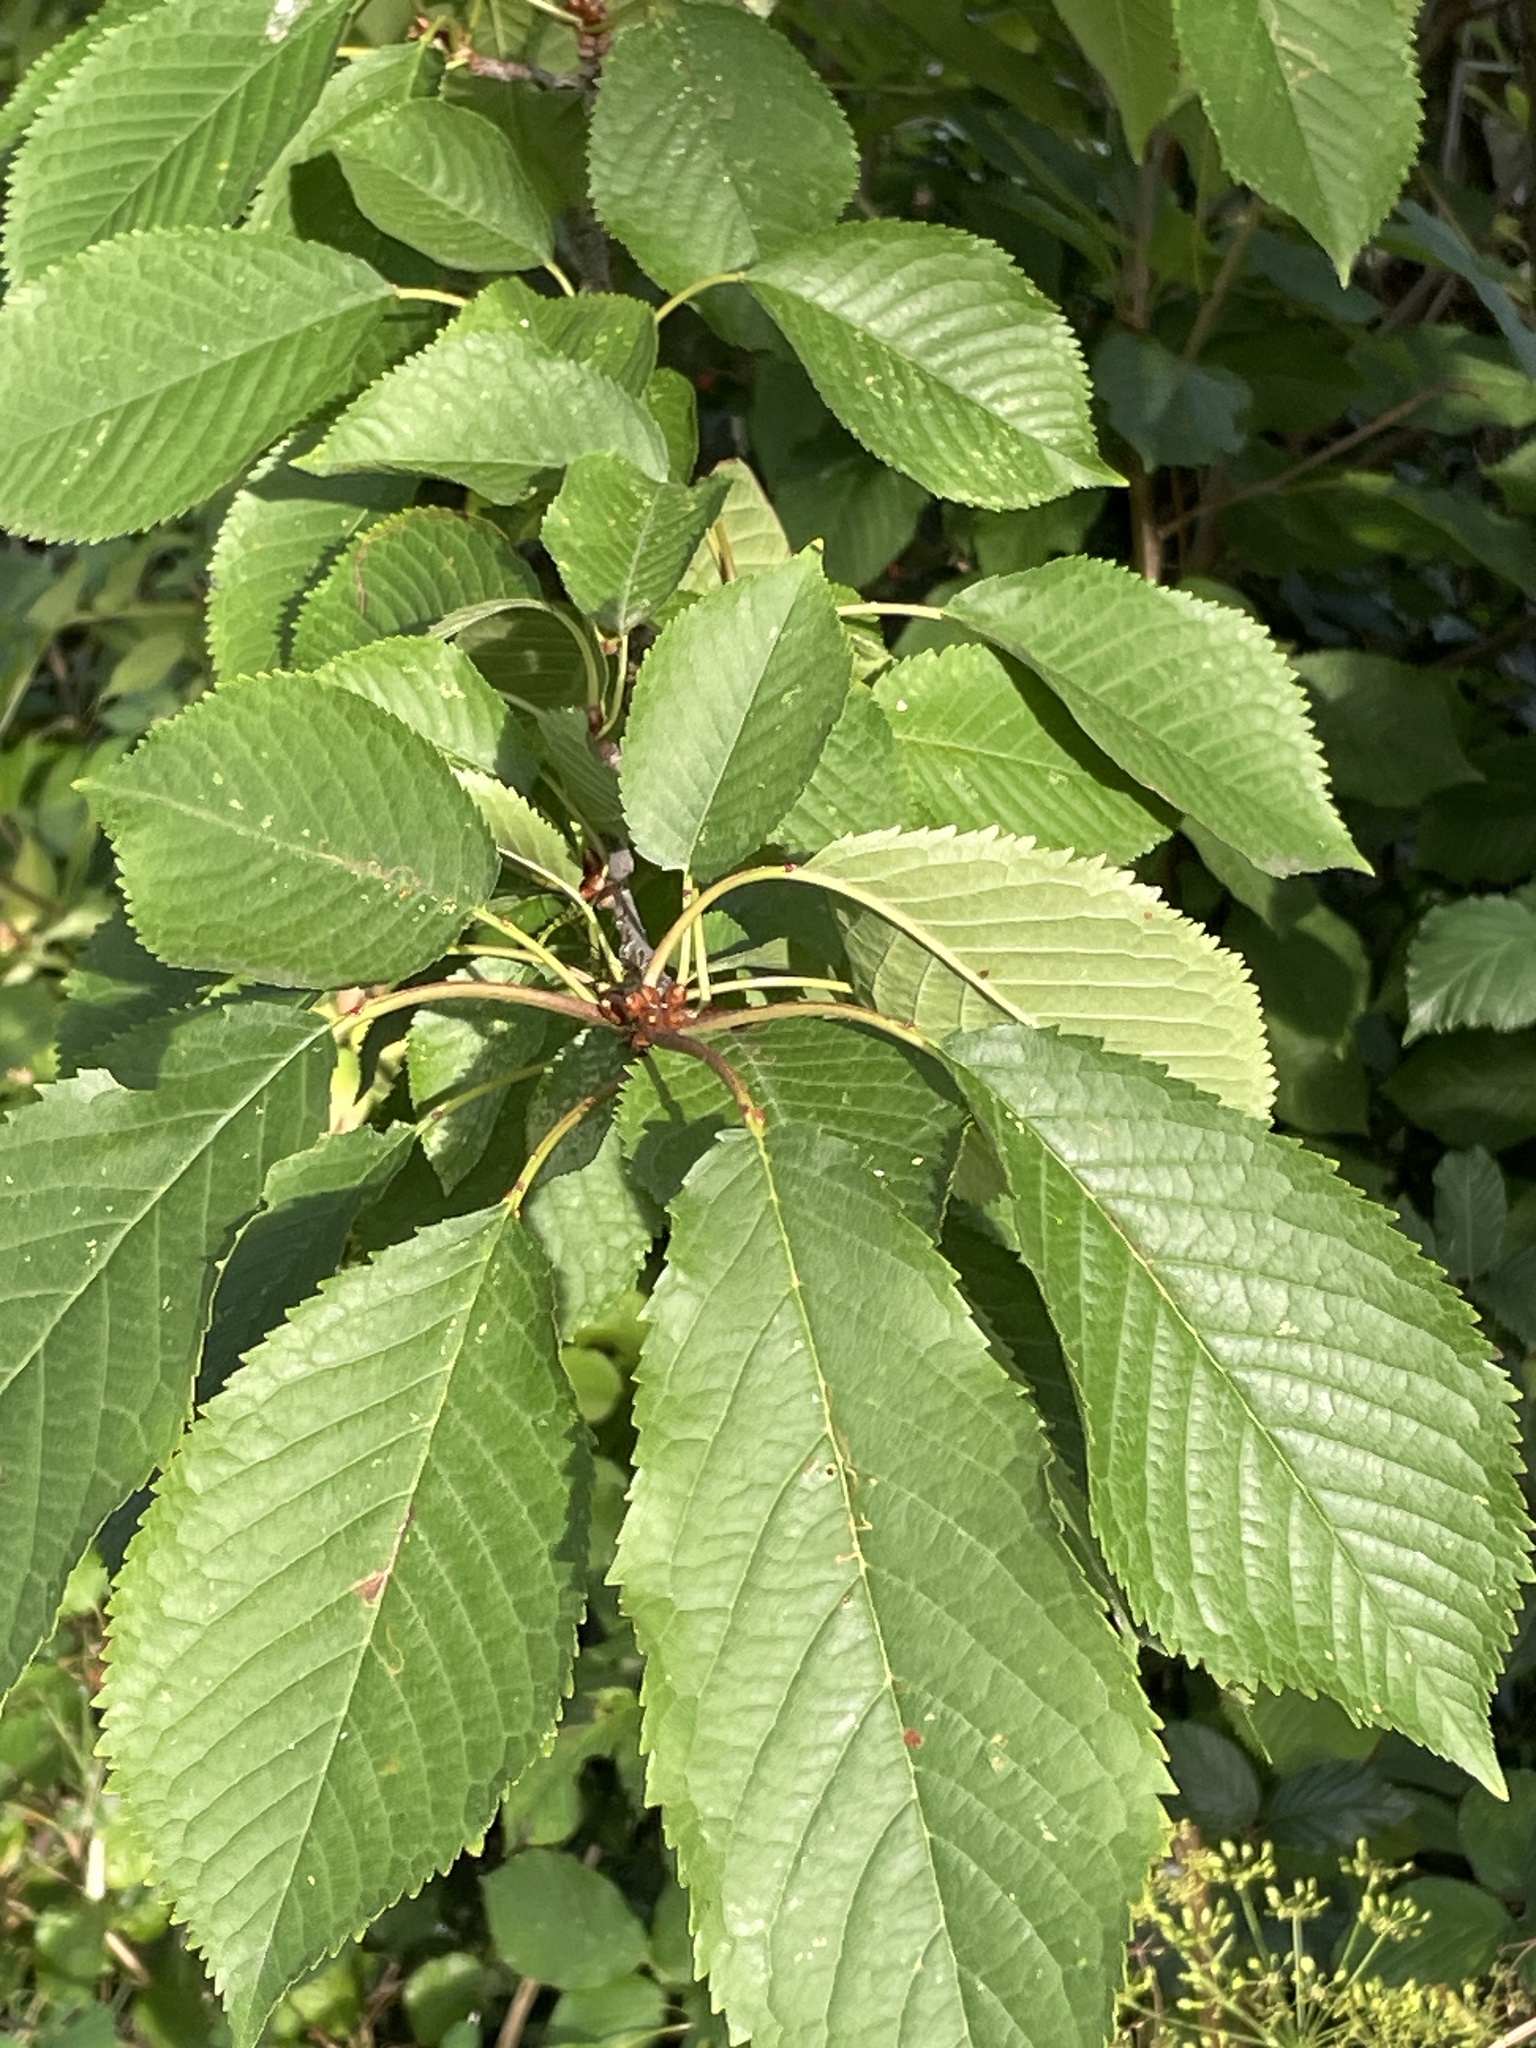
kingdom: Plantae
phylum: Tracheophyta
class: Magnoliopsida
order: Rosales
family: Rosaceae
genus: Prunus
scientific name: Prunus avium
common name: Sweet cherry
